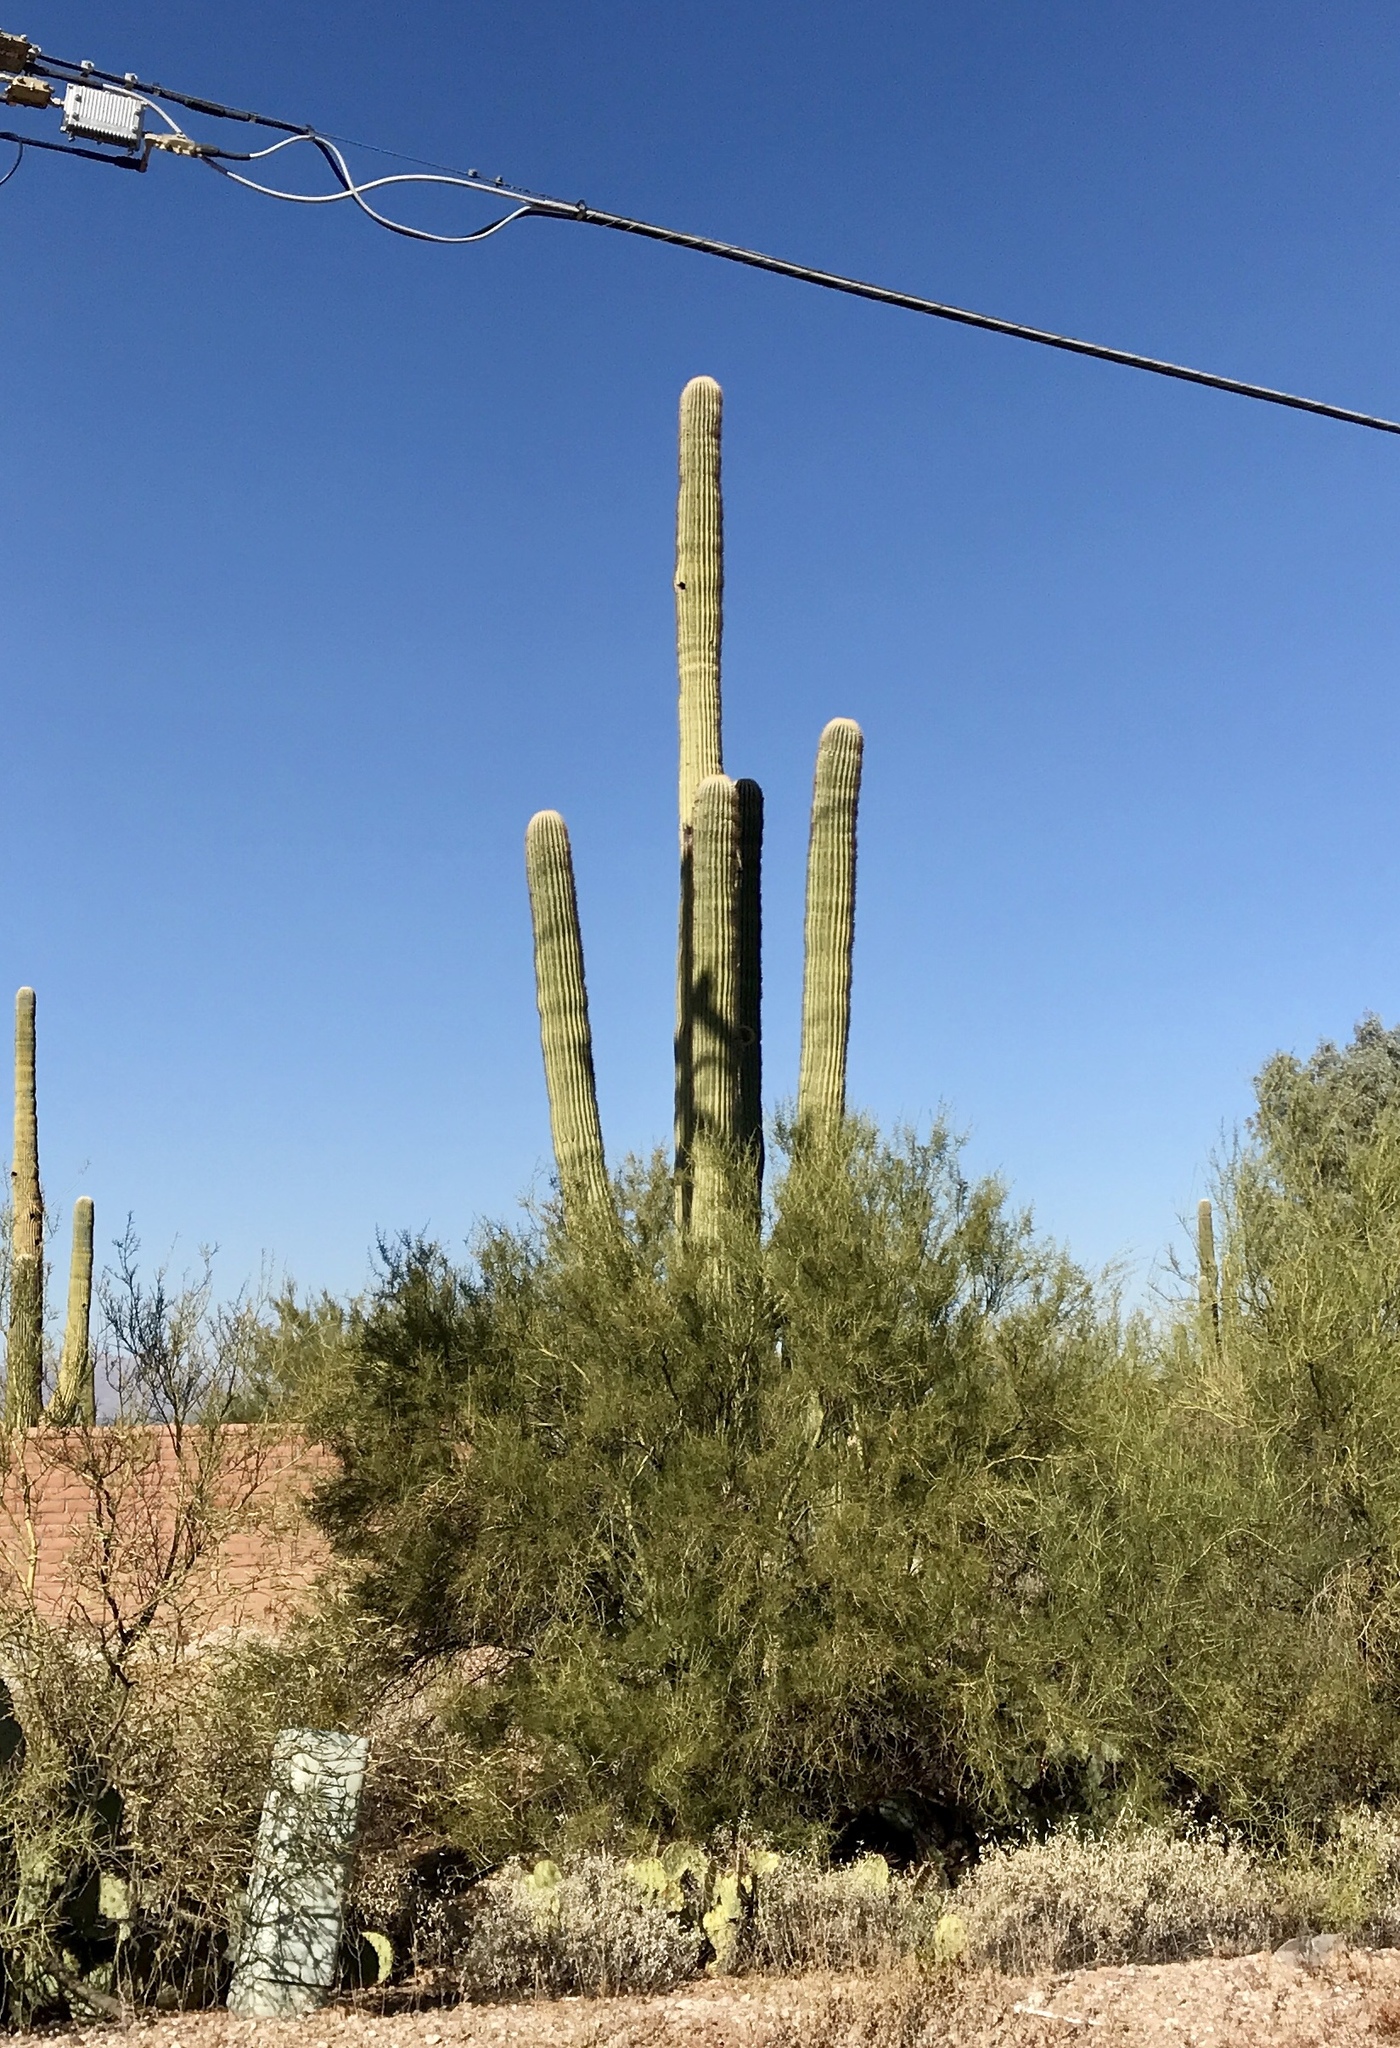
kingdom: Plantae
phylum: Tracheophyta
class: Magnoliopsida
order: Caryophyllales
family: Cactaceae
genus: Carnegiea
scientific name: Carnegiea gigantea
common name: Saguaro
